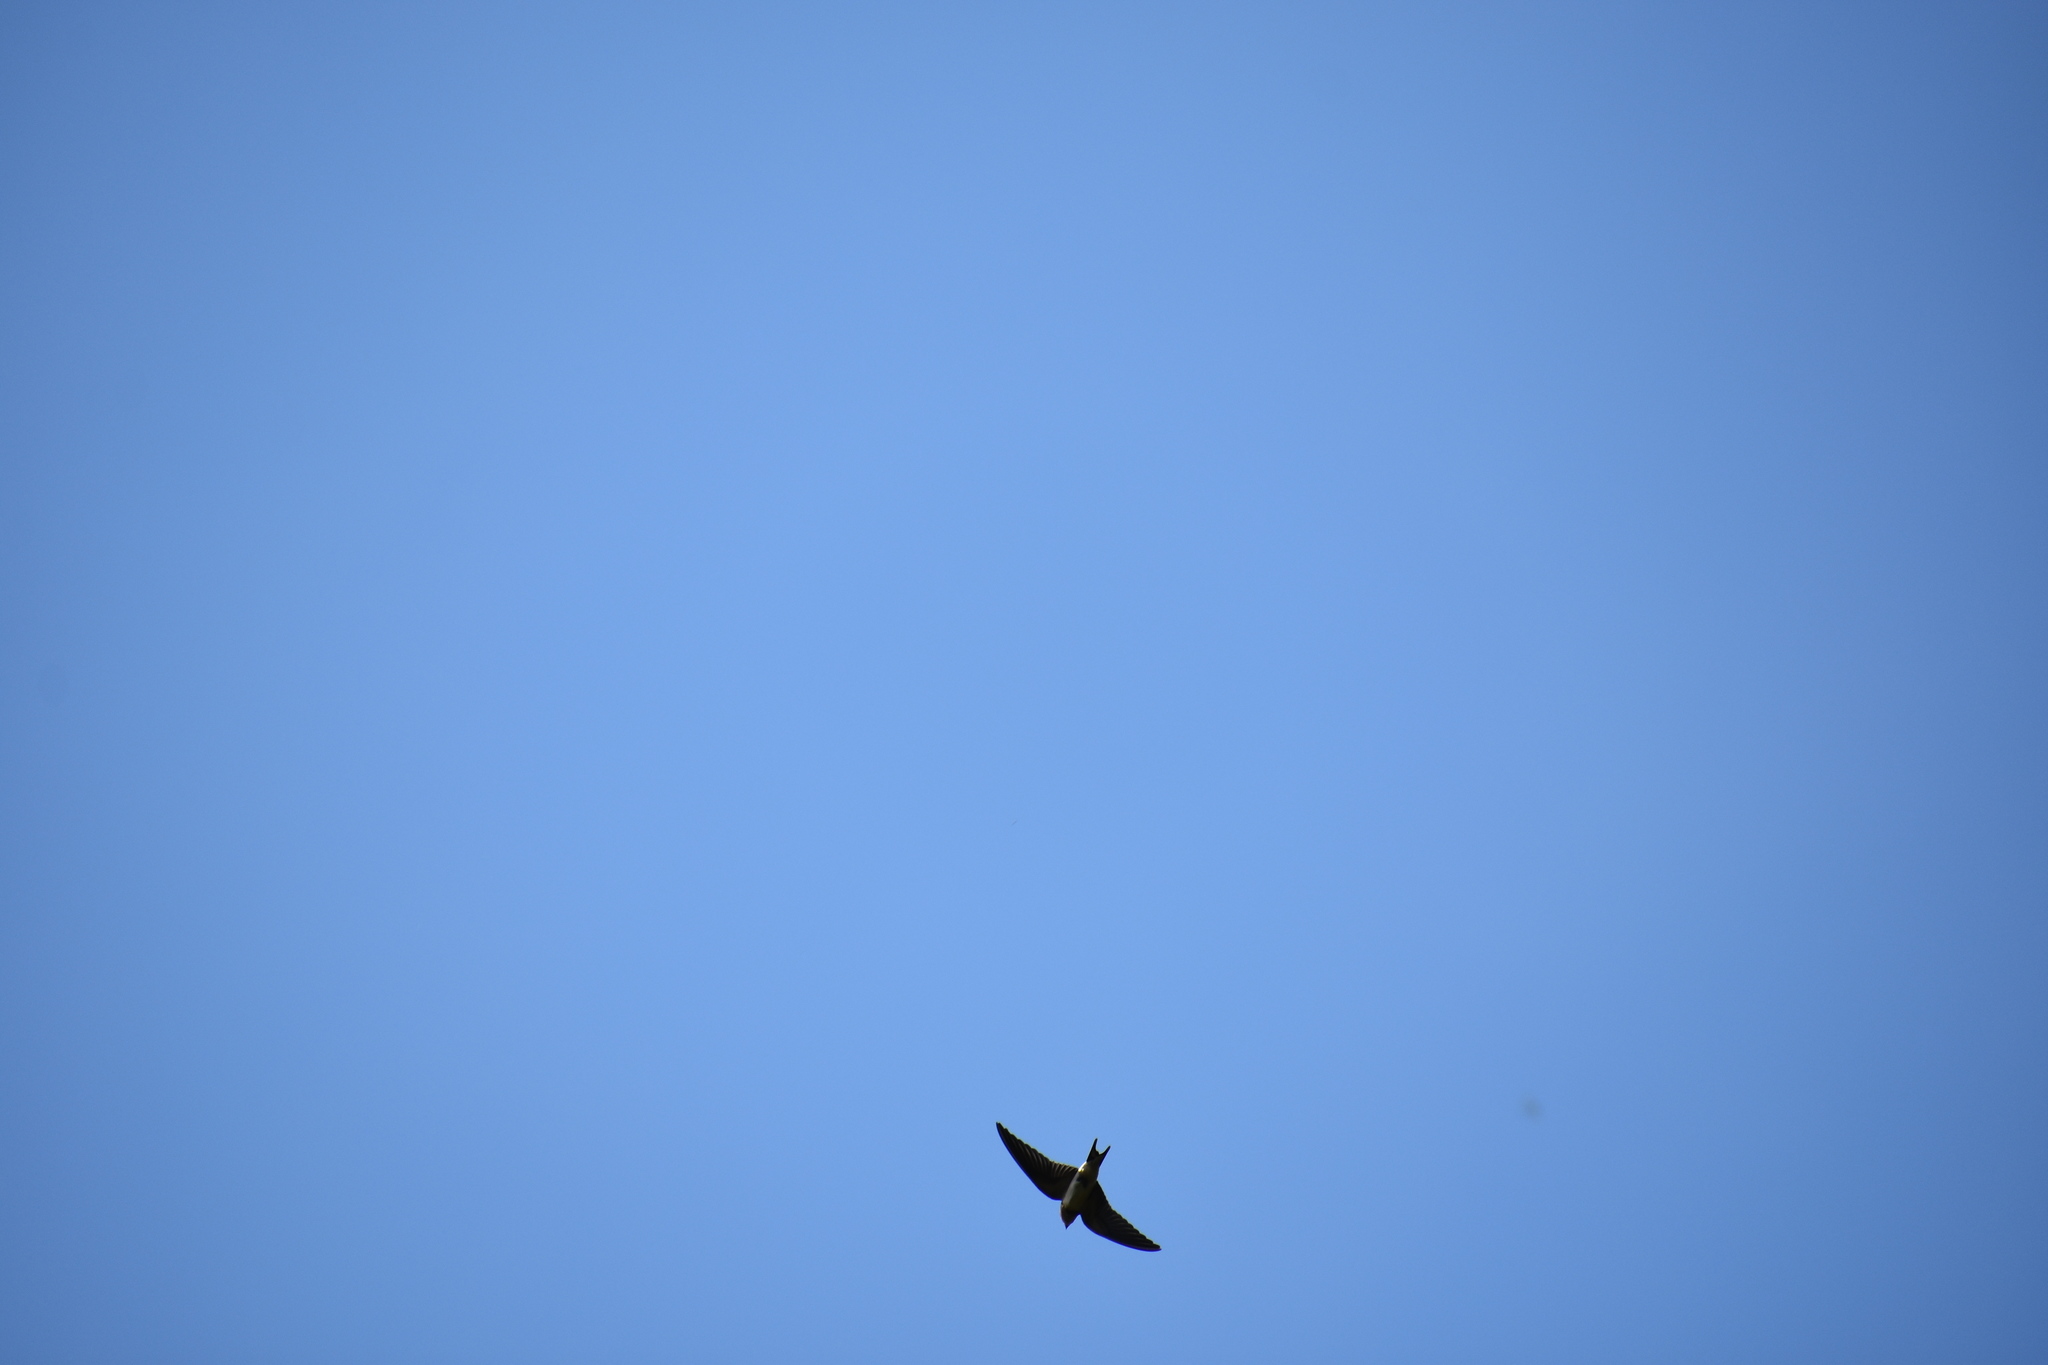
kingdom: Animalia
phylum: Chordata
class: Aves
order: Passeriformes
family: Hirundinidae
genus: Hirundo
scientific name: Hirundo rustica
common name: Barn swallow
